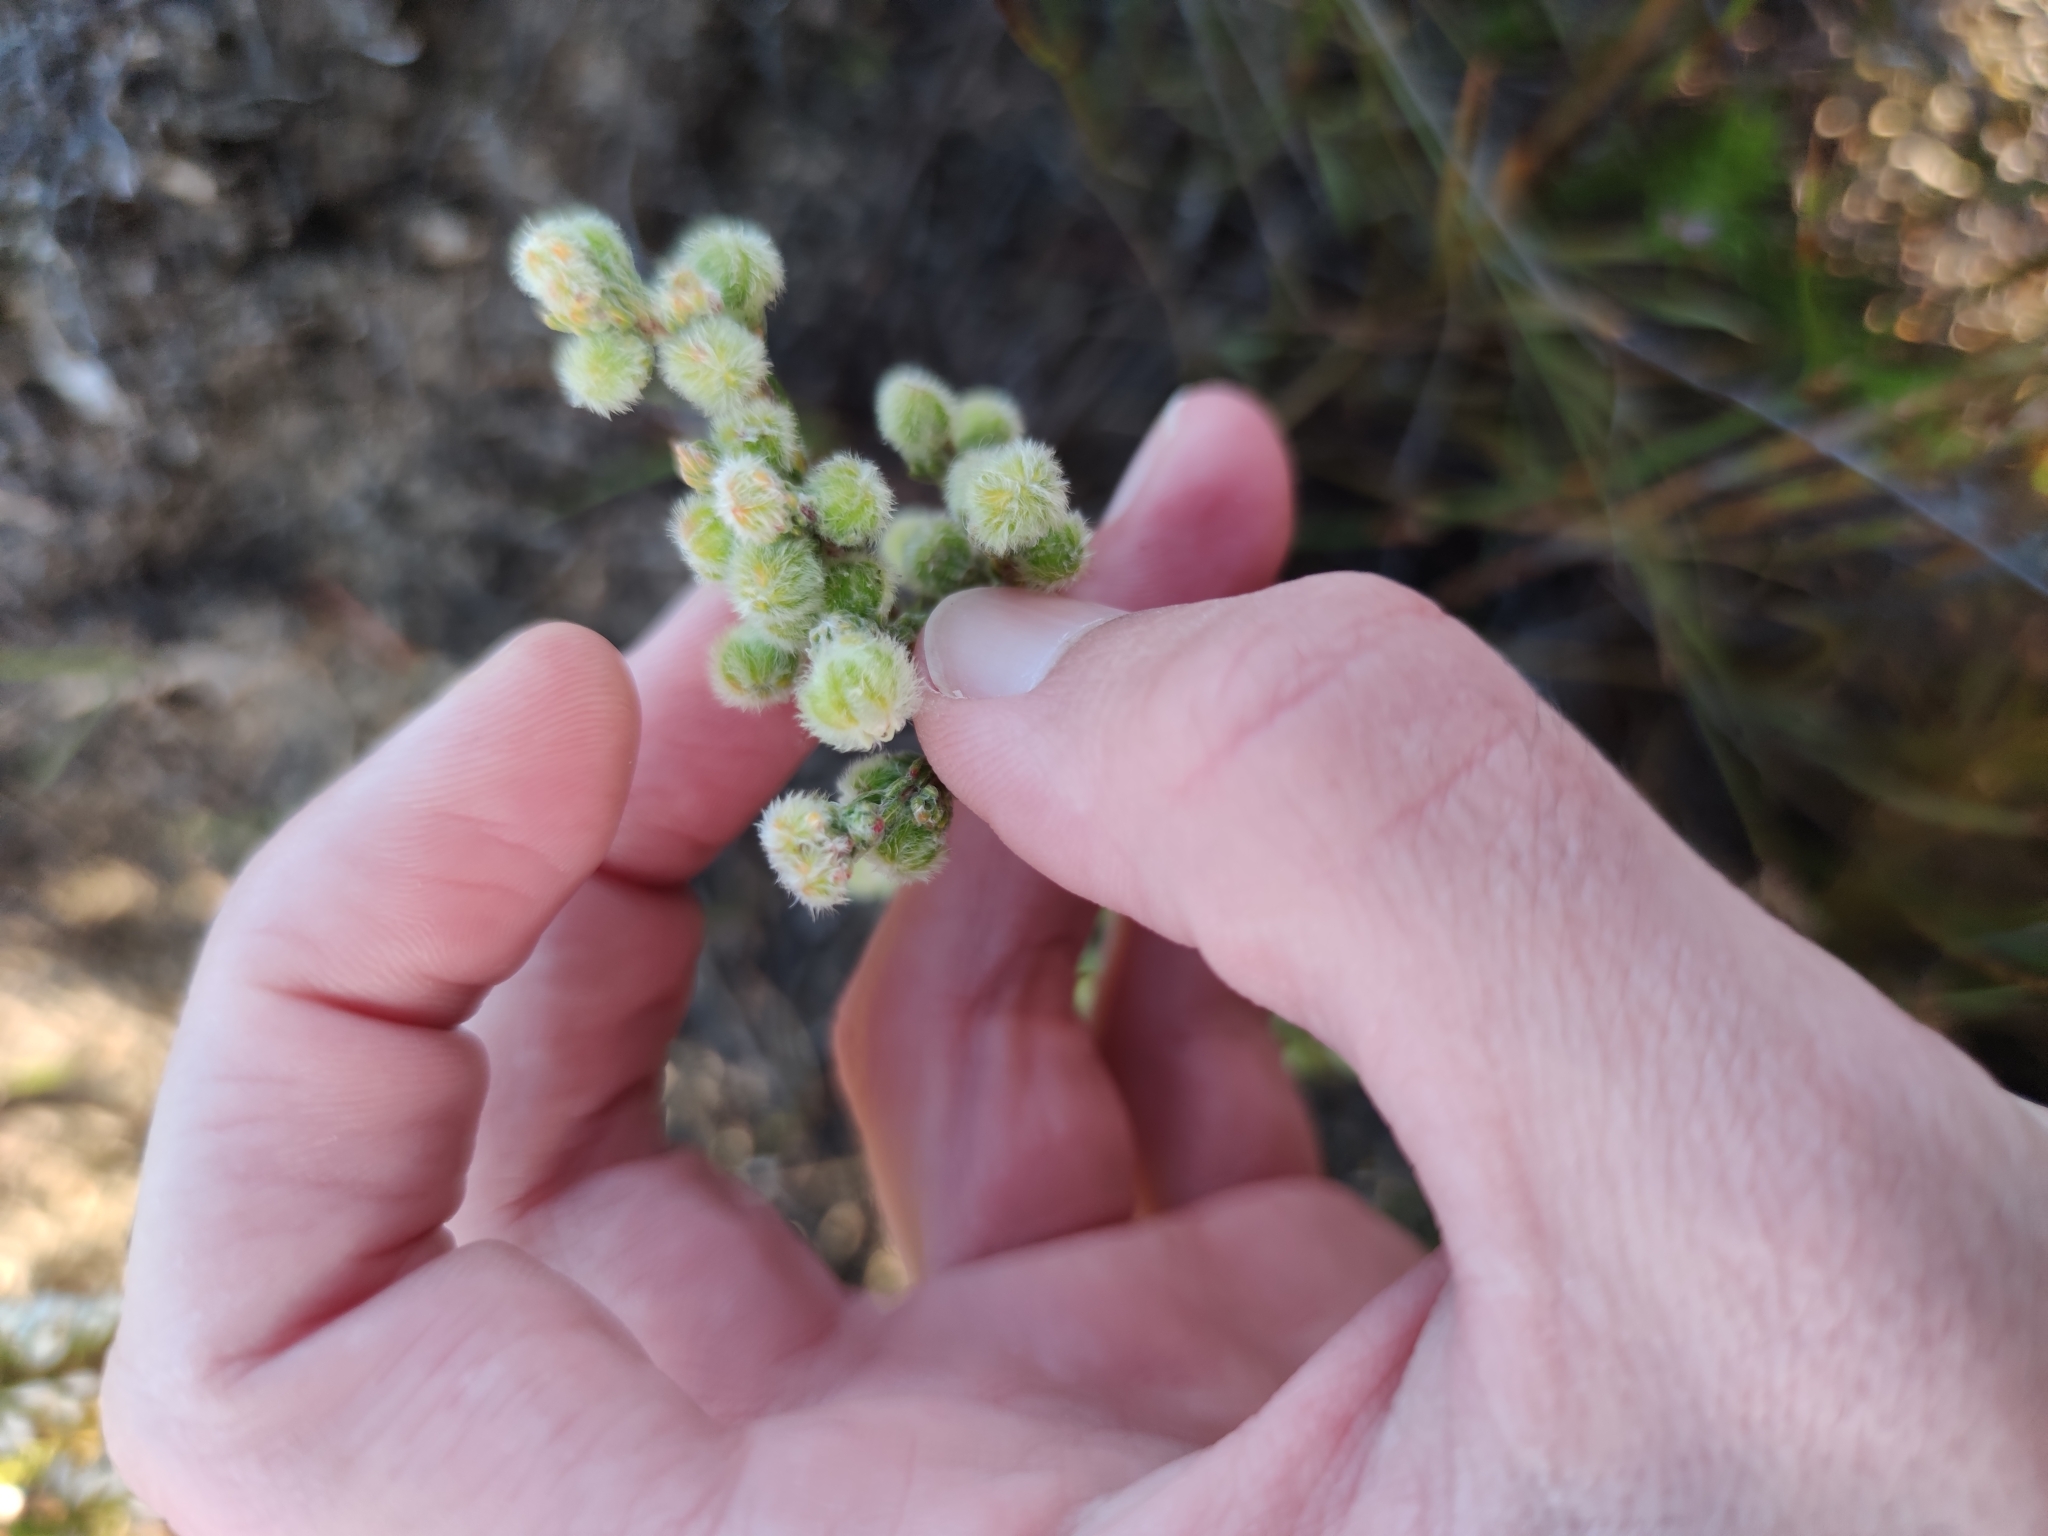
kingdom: Plantae
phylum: Tracheophyta
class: Magnoliopsida
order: Ericales
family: Ericaceae
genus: Erica
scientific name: Erica capitata
